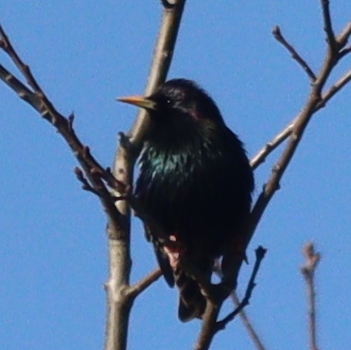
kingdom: Animalia
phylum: Chordata
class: Aves
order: Passeriformes
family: Sturnidae
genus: Sturnus
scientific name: Sturnus vulgaris
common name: Common starling
